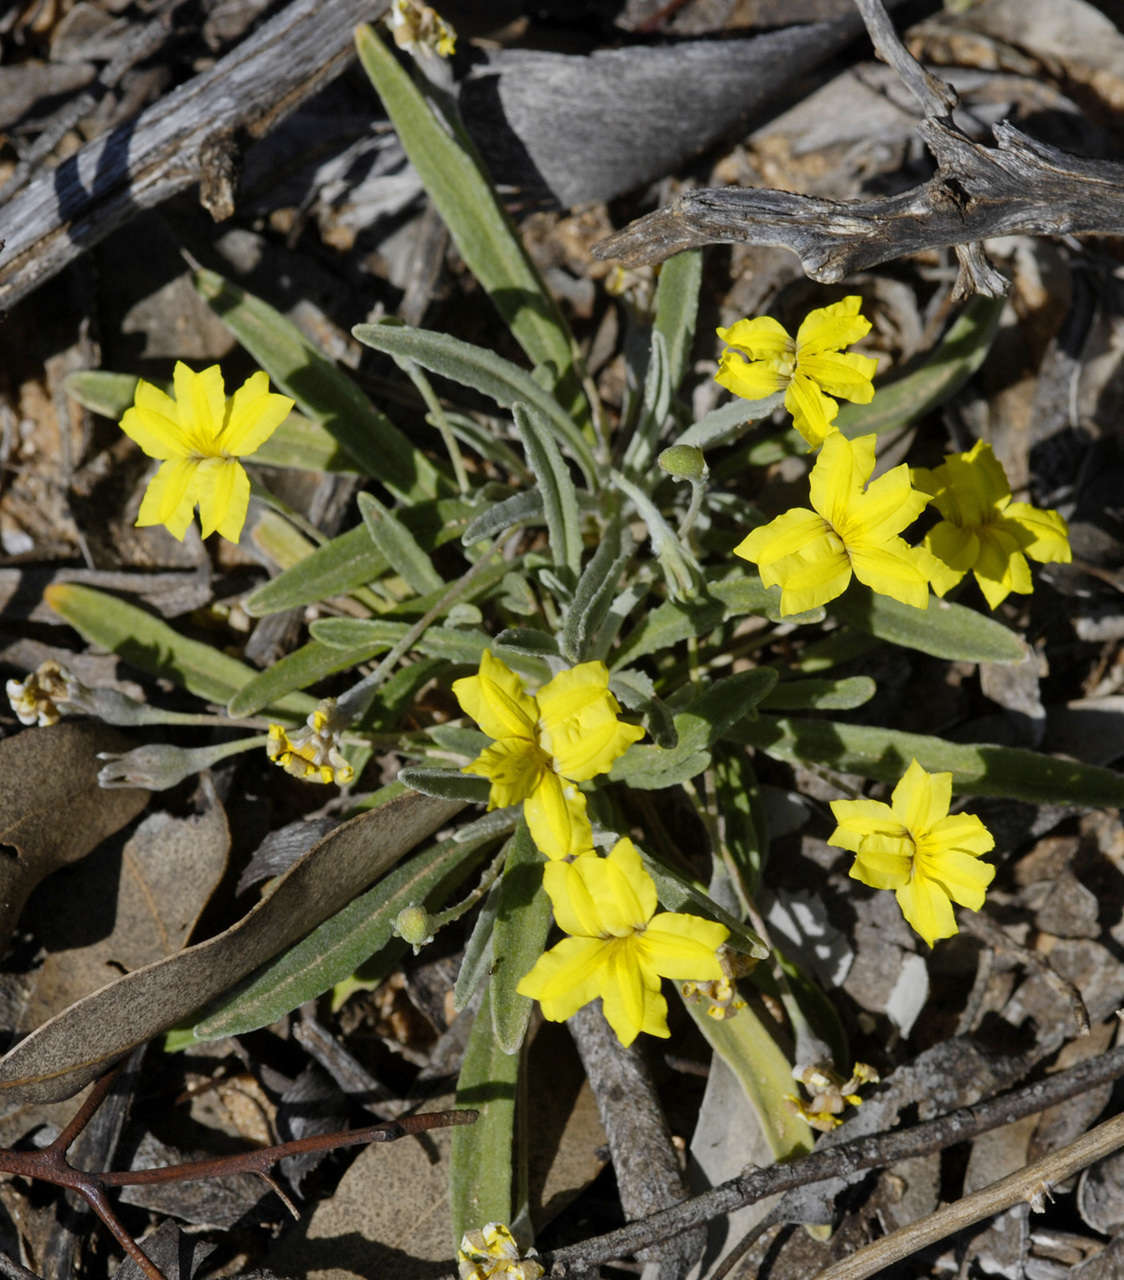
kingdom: Plantae
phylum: Tracheophyta
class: Magnoliopsida
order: Asterales
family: Goodeniaceae
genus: Goodenia
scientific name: Goodenia willisiana
